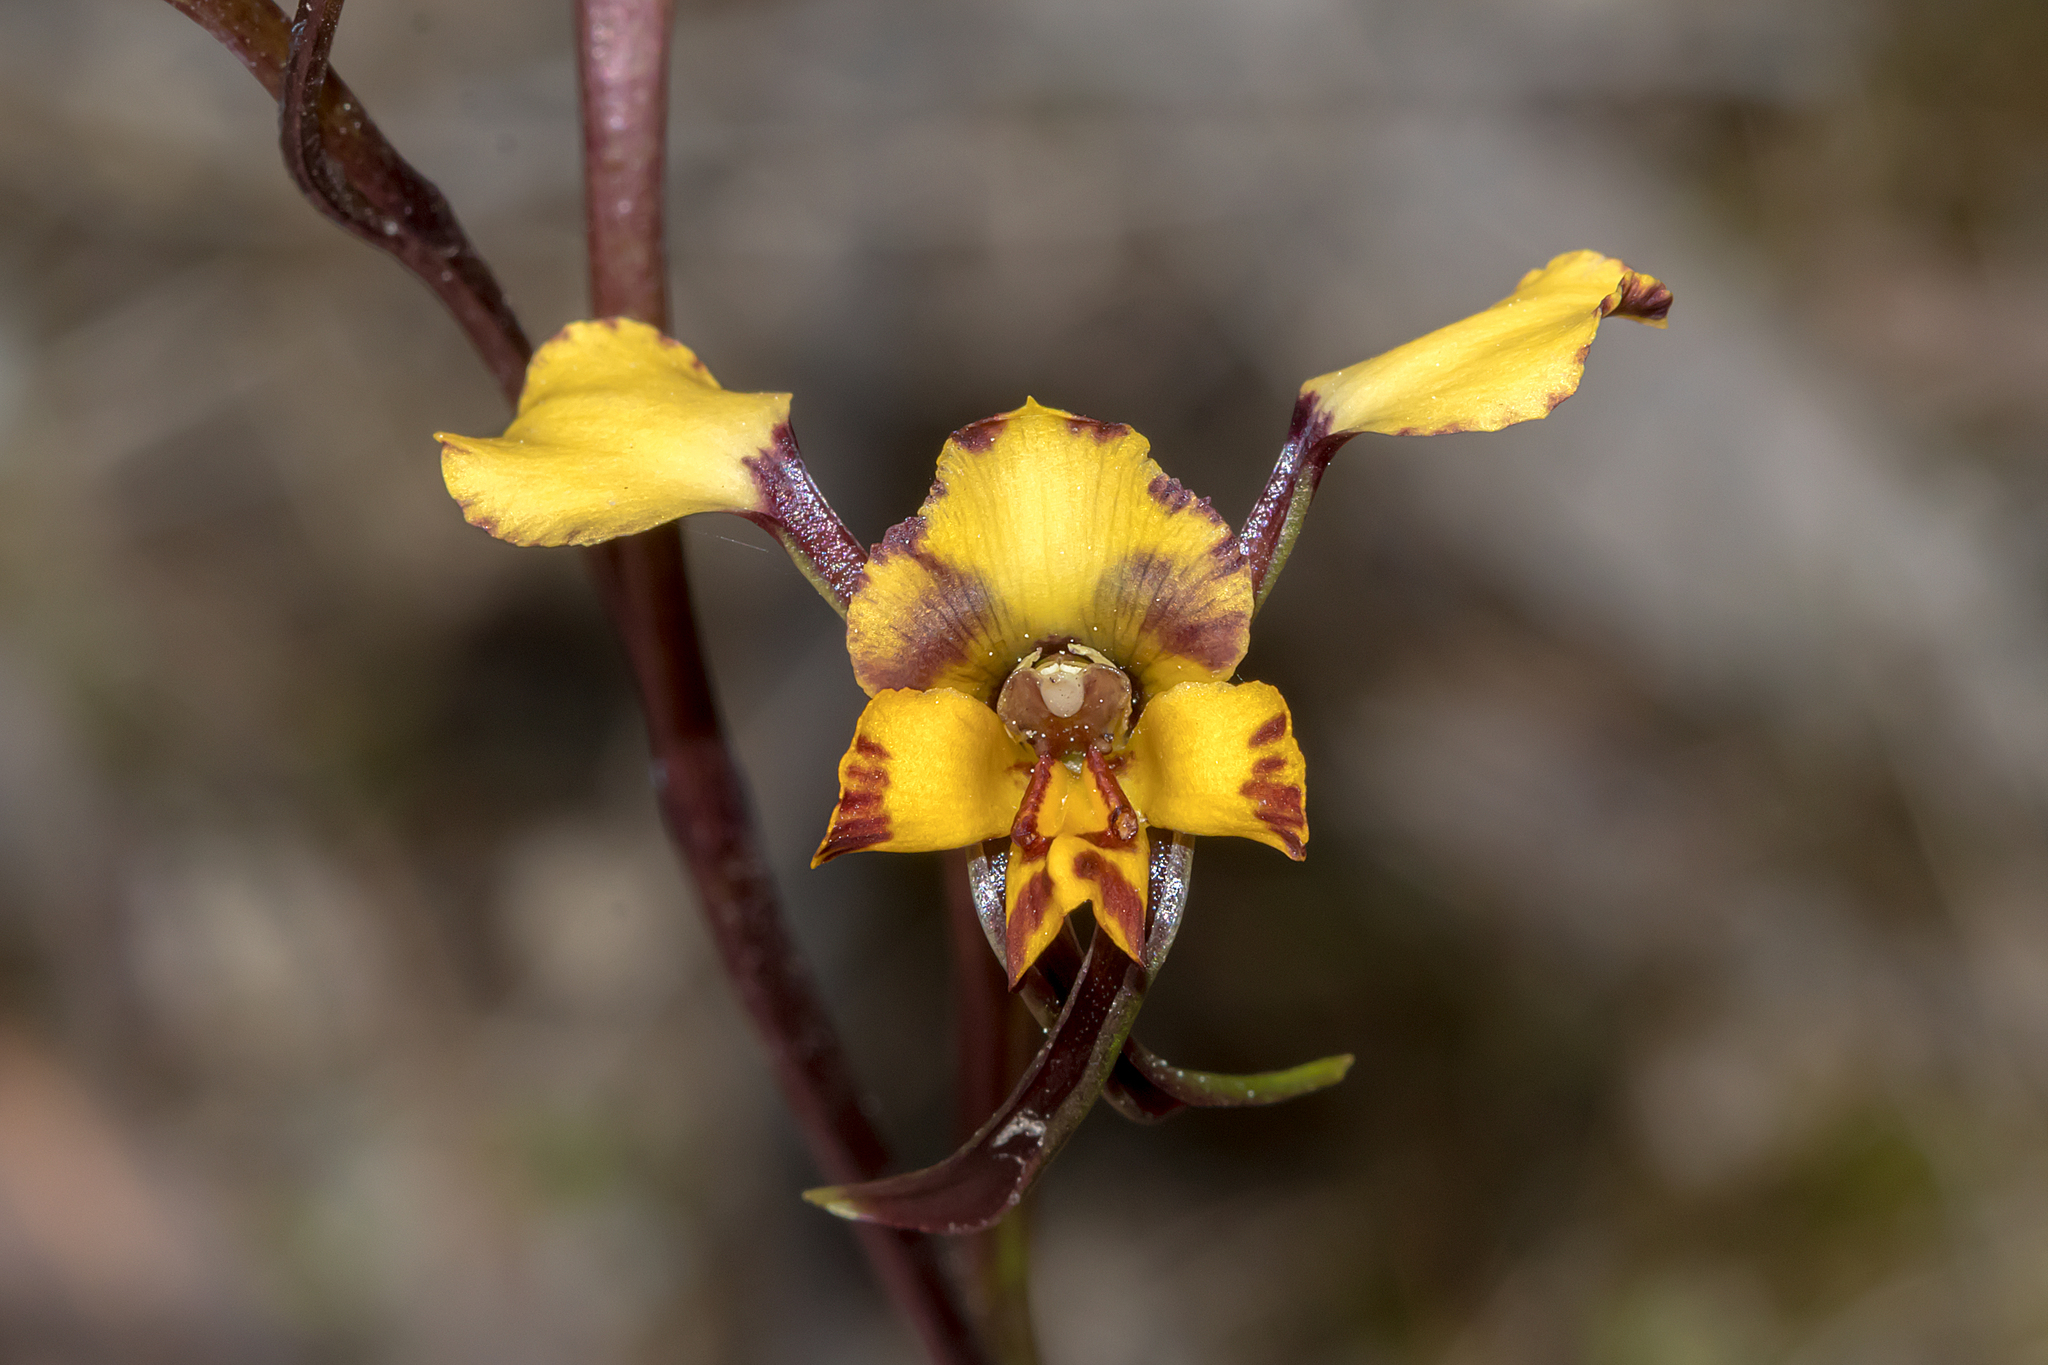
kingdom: Plantae
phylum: Tracheophyta
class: Liliopsida
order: Asparagales
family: Orchidaceae
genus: Diuris
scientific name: Diuris pardina
